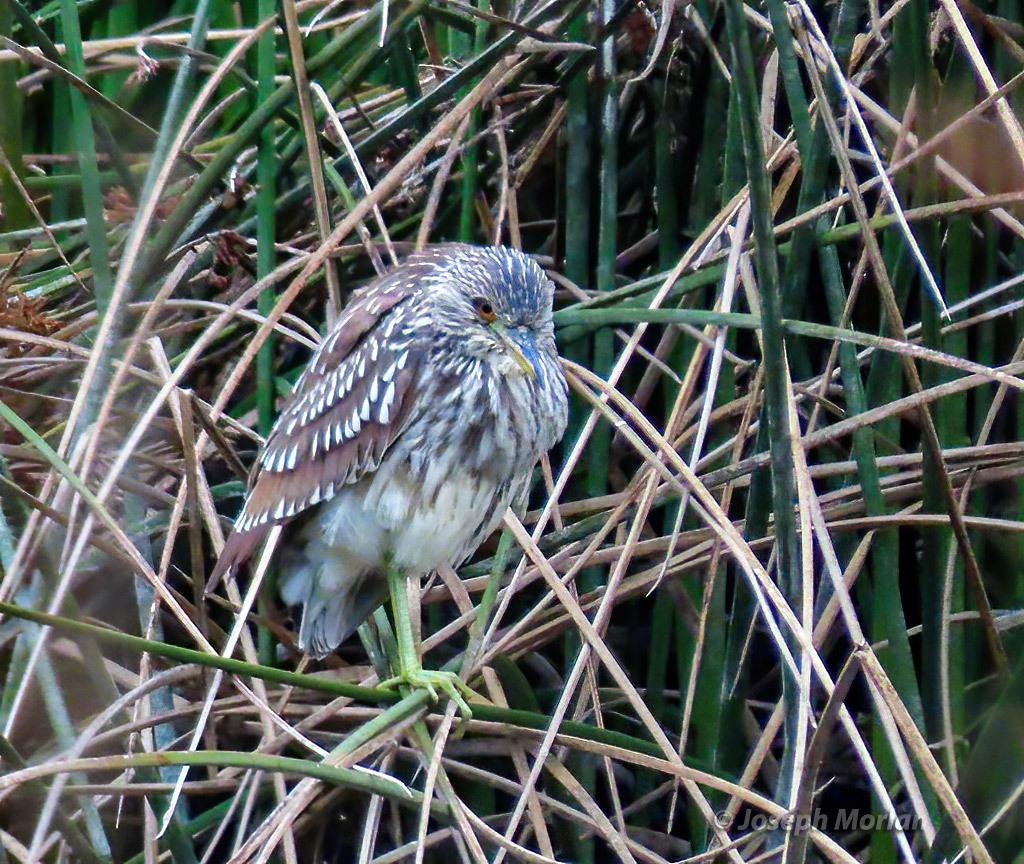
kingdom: Animalia
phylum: Chordata
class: Aves
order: Pelecaniformes
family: Ardeidae
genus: Nycticorax
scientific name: Nycticorax nycticorax
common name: Black-crowned night heron
